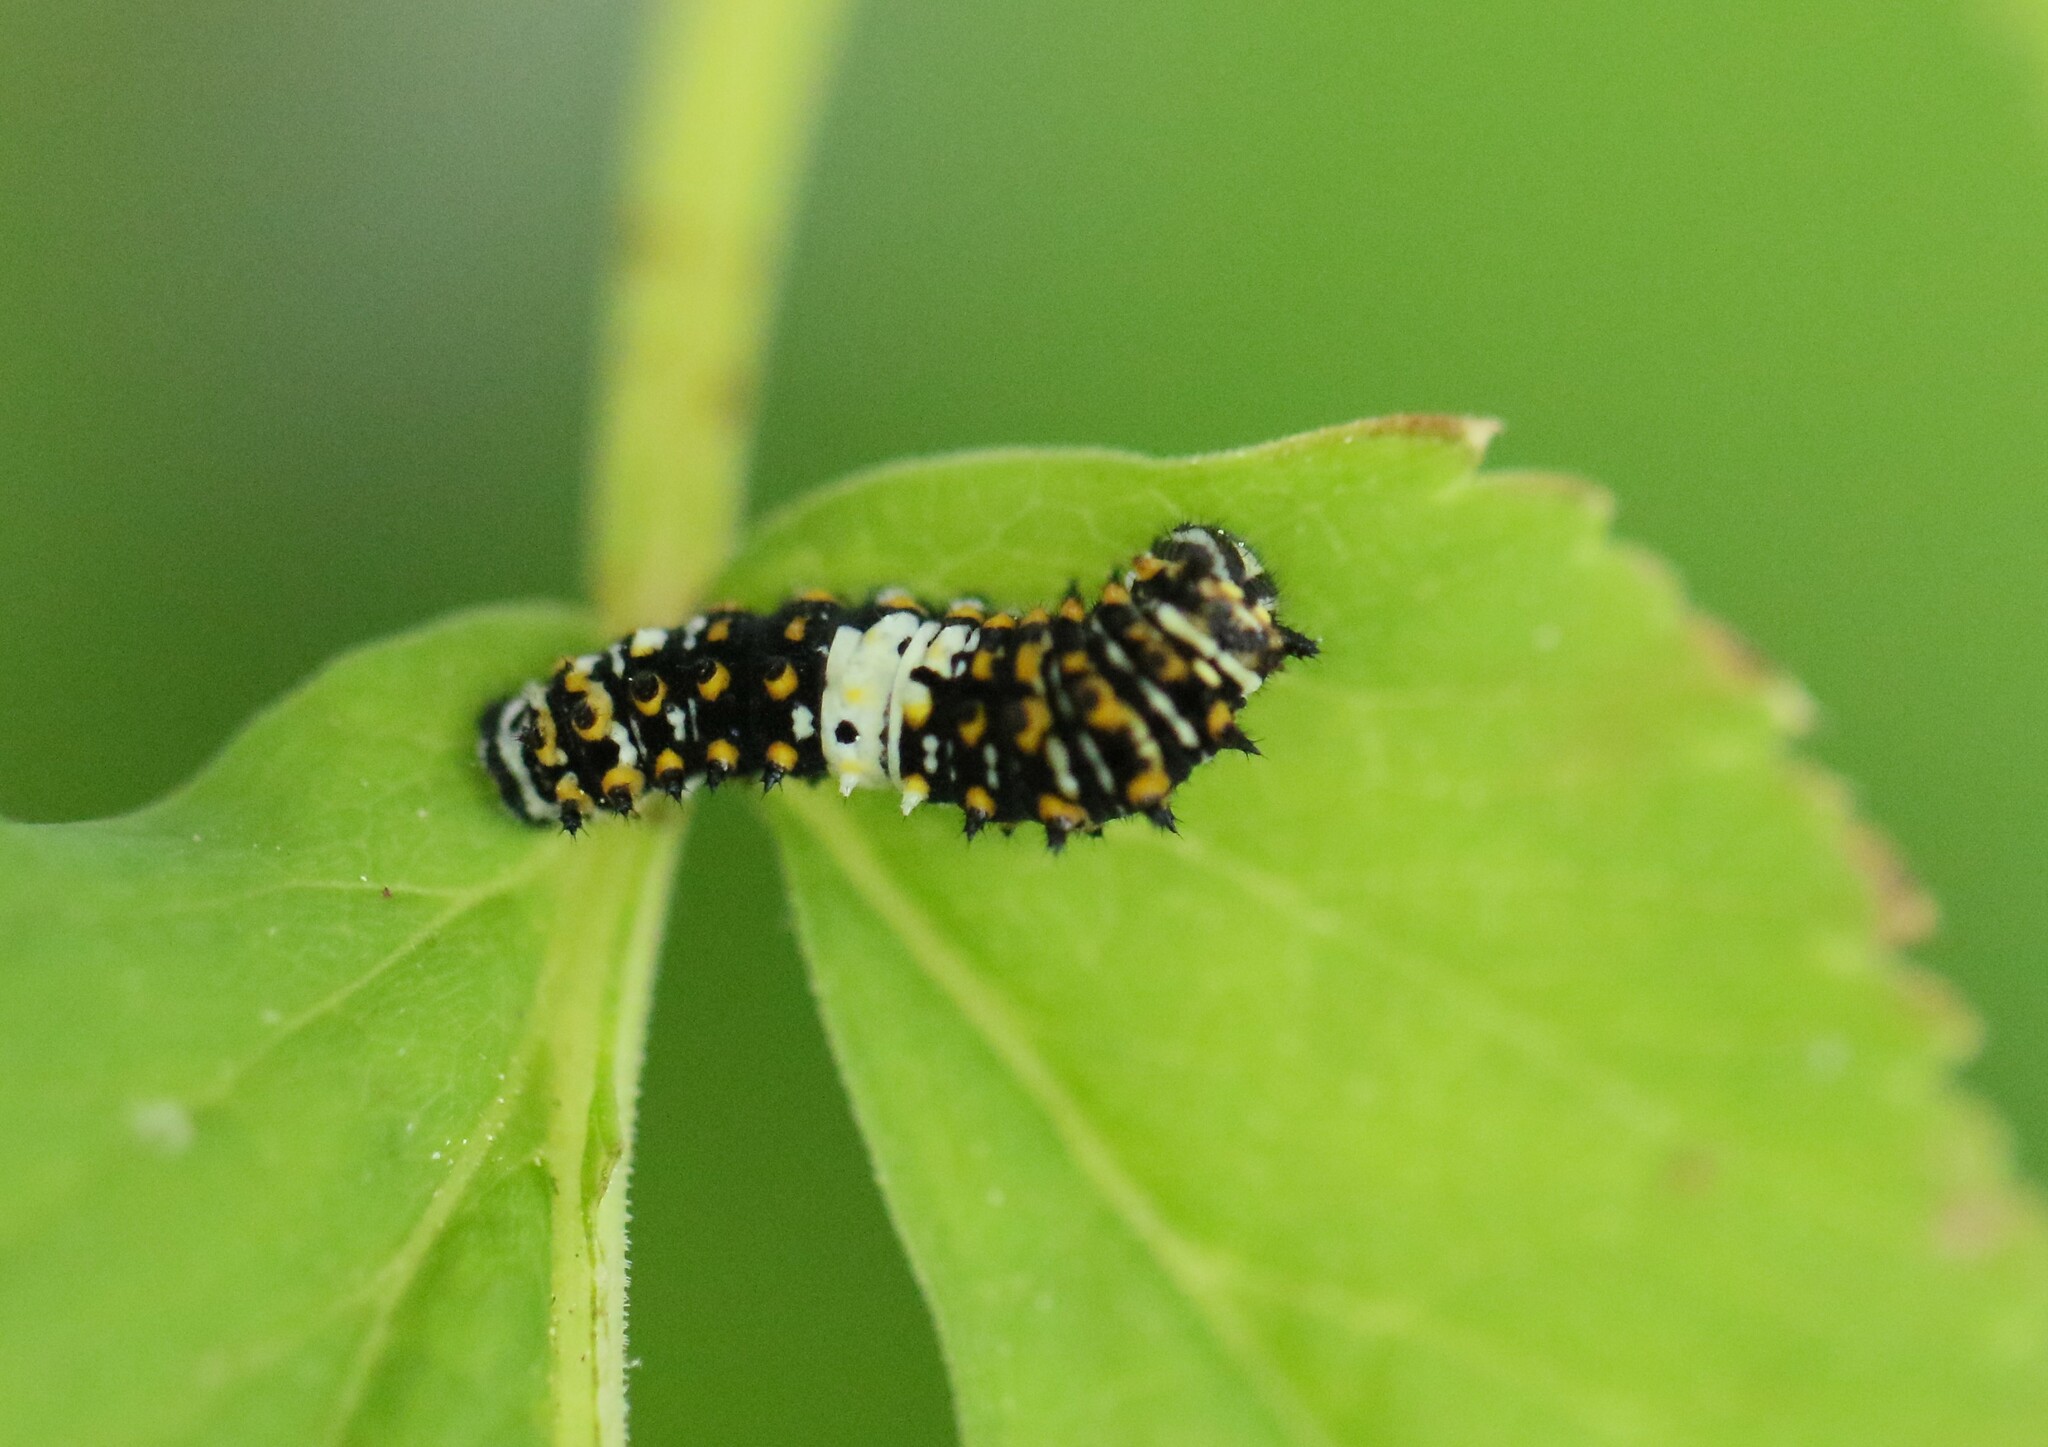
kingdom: Animalia
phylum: Arthropoda
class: Insecta
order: Lepidoptera
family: Papilionidae
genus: Papilio
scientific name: Papilio polyxenes
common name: Black swallowtail
